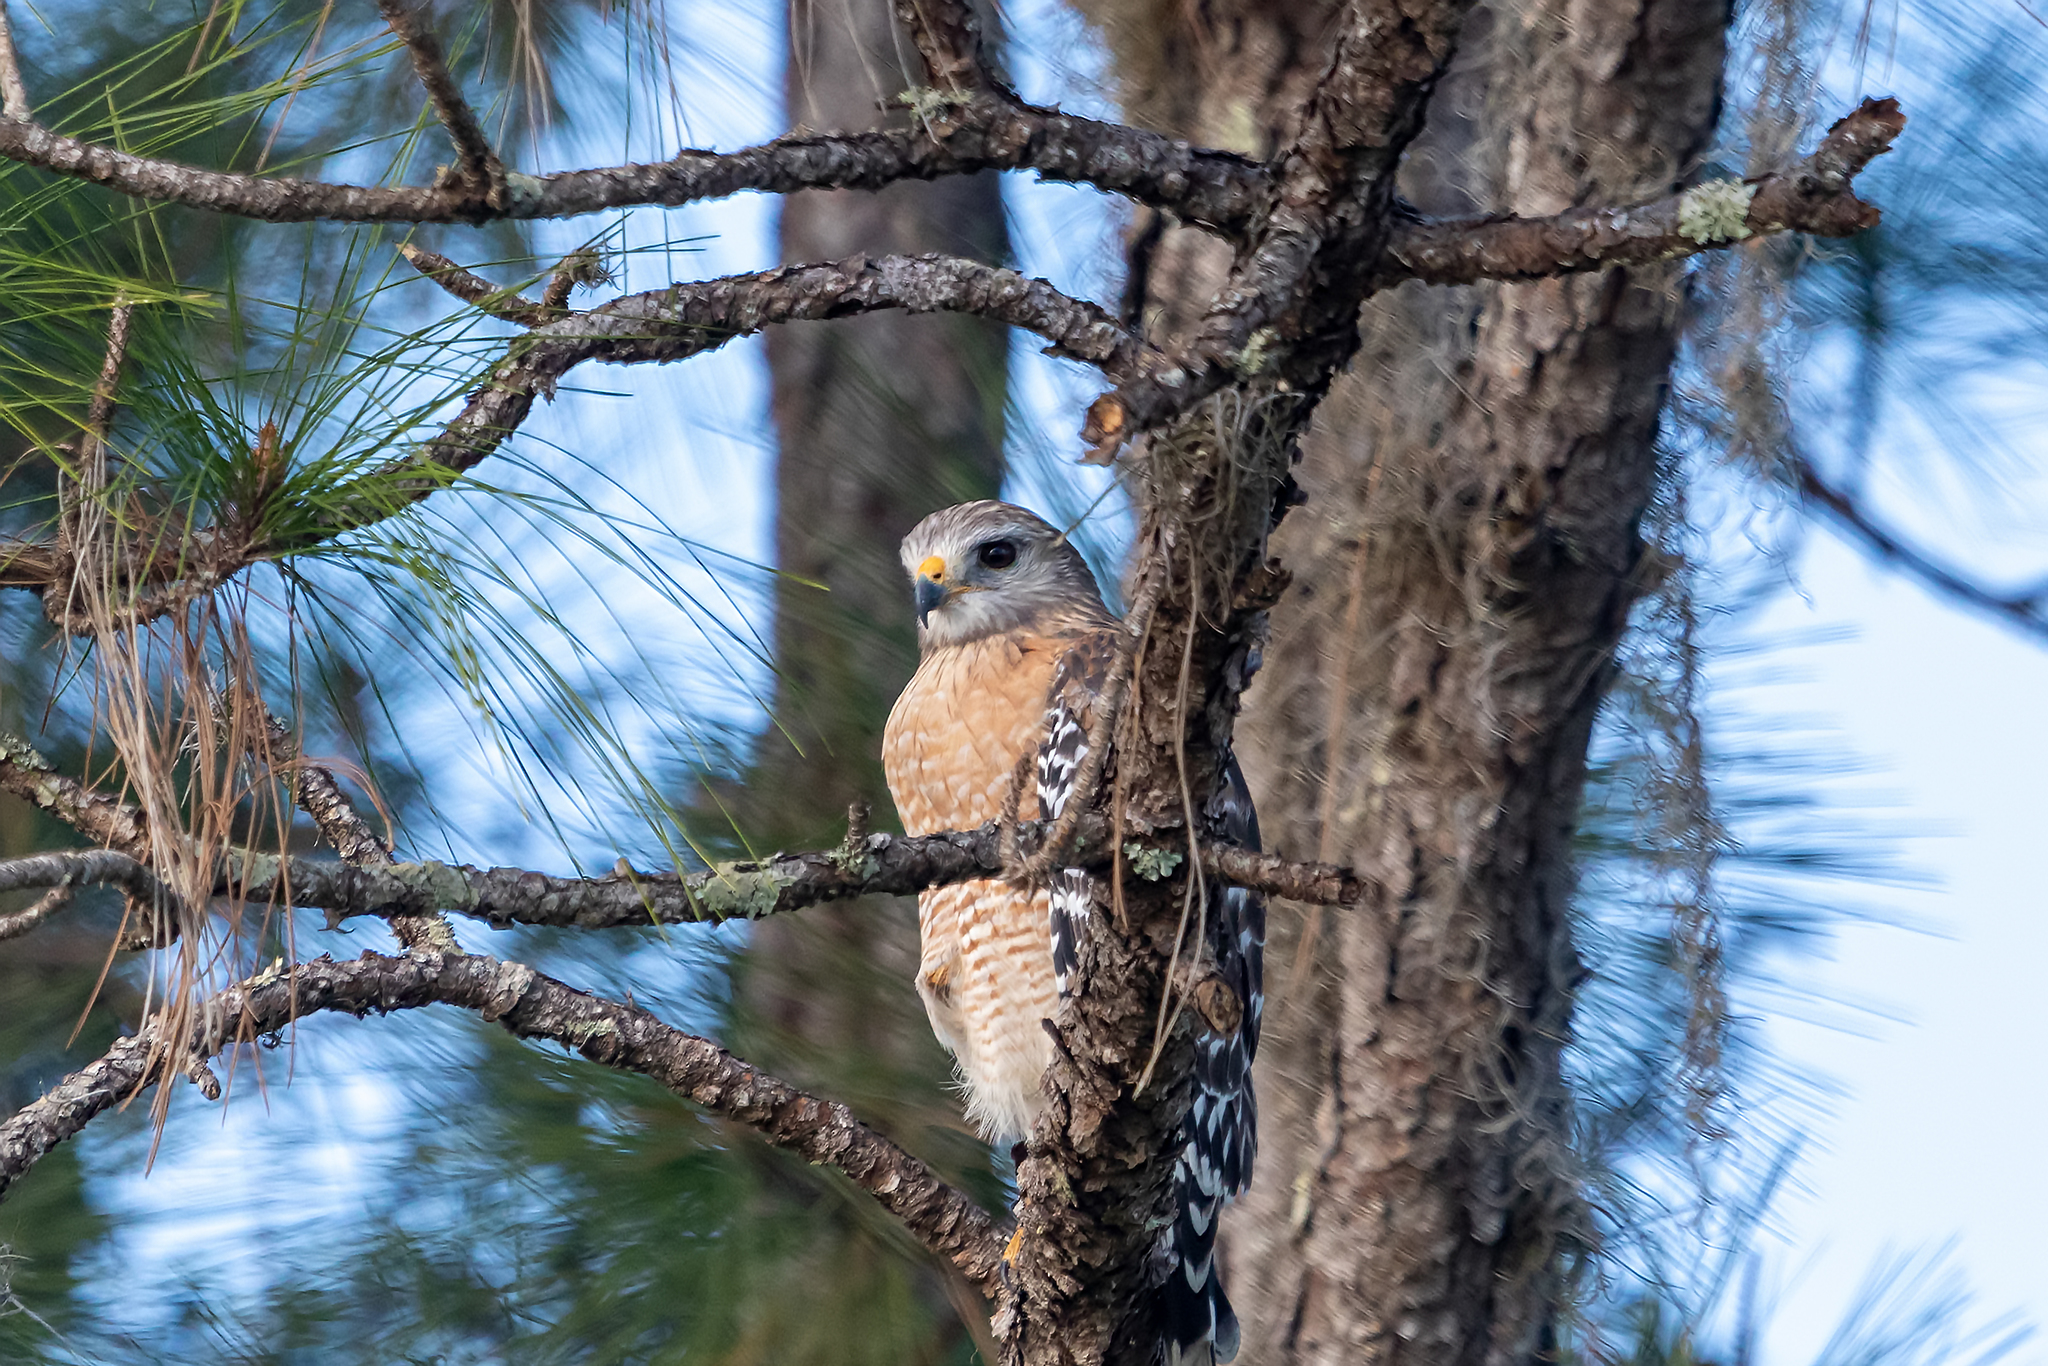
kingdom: Animalia
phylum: Chordata
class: Aves
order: Accipitriformes
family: Accipitridae
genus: Buteo
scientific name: Buteo lineatus
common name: Red-shouldered hawk
